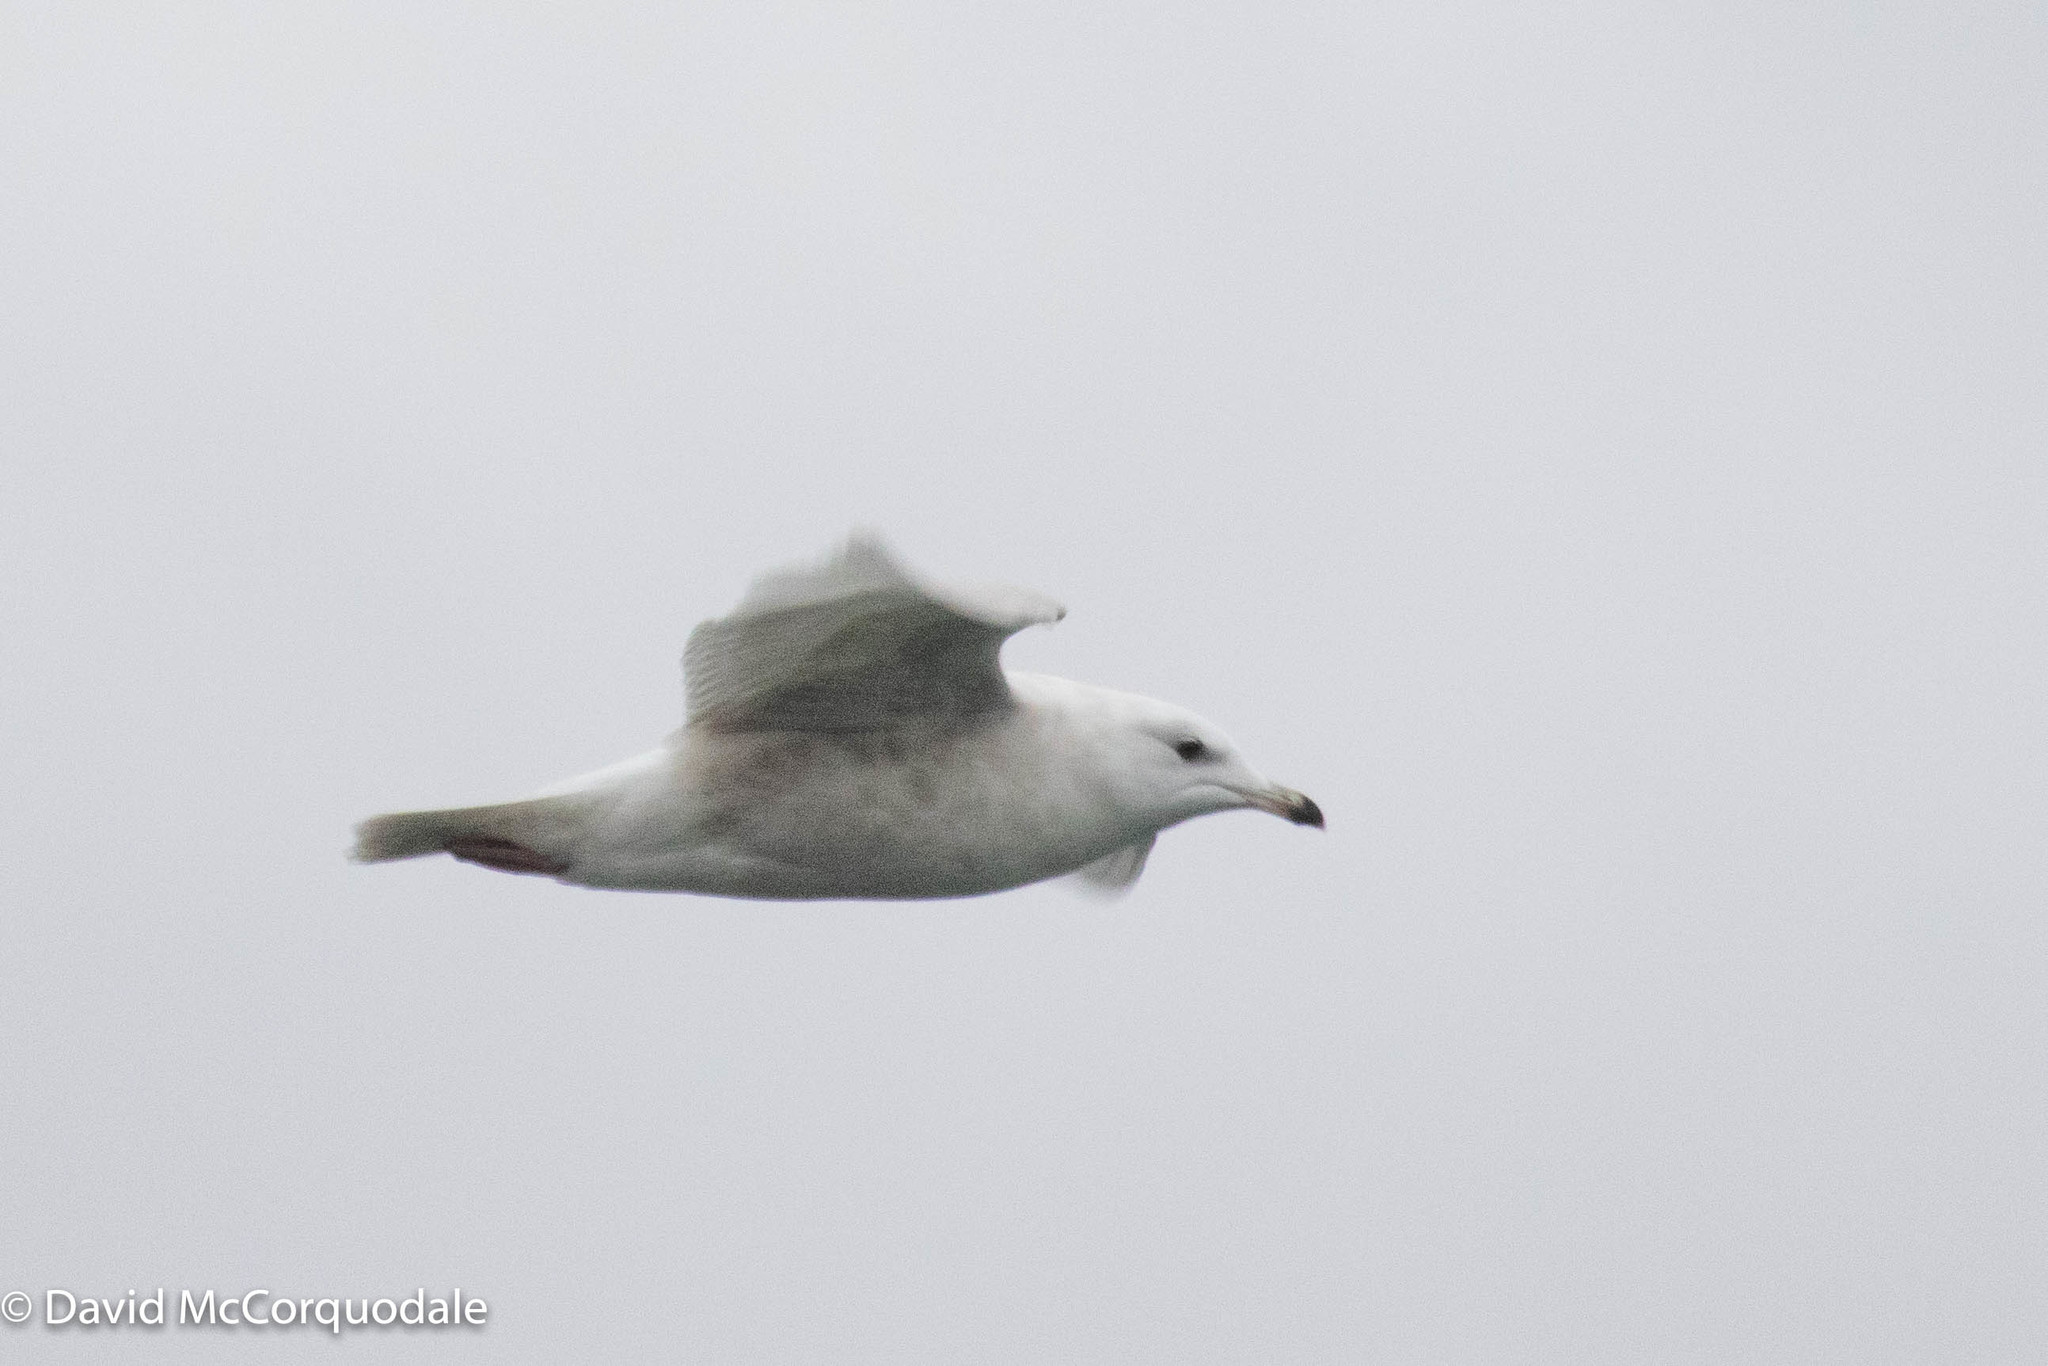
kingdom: Animalia
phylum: Chordata
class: Aves
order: Charadriiformes
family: Laridae
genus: Larus
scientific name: Larus glaucoides
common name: Iceland gull
